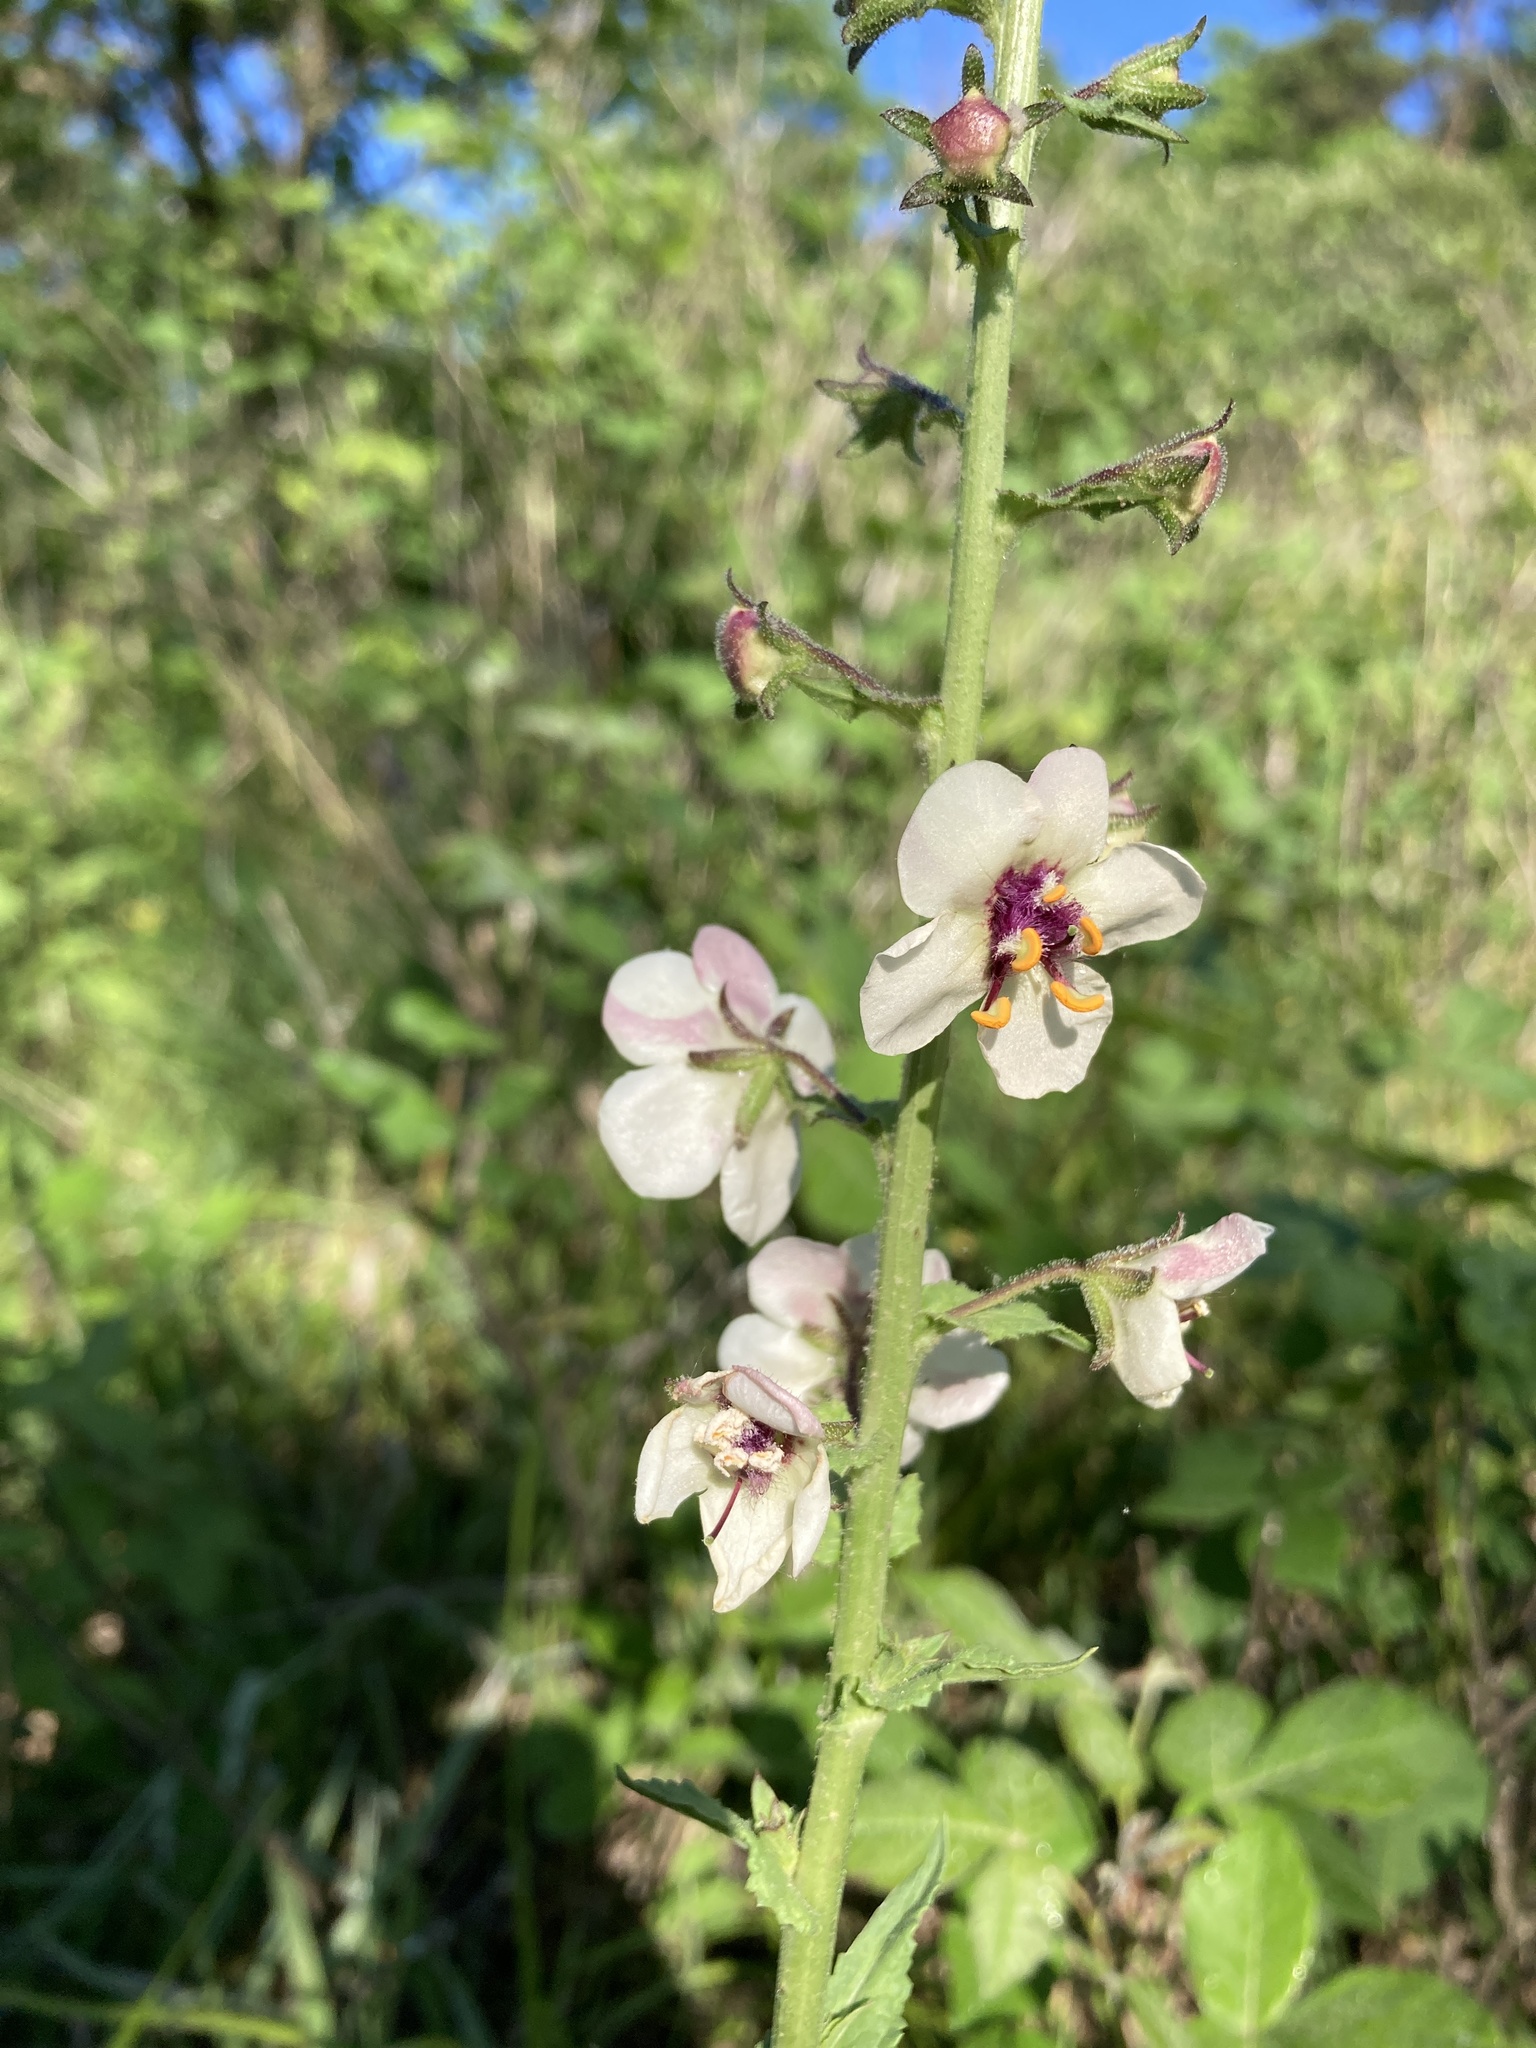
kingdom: Plantae
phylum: Tracheophyta
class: Magnoliopsida
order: Lamiales
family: Scrophulariaceae
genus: Verbascum
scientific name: Verbascum blattaria
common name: Moth mullein
